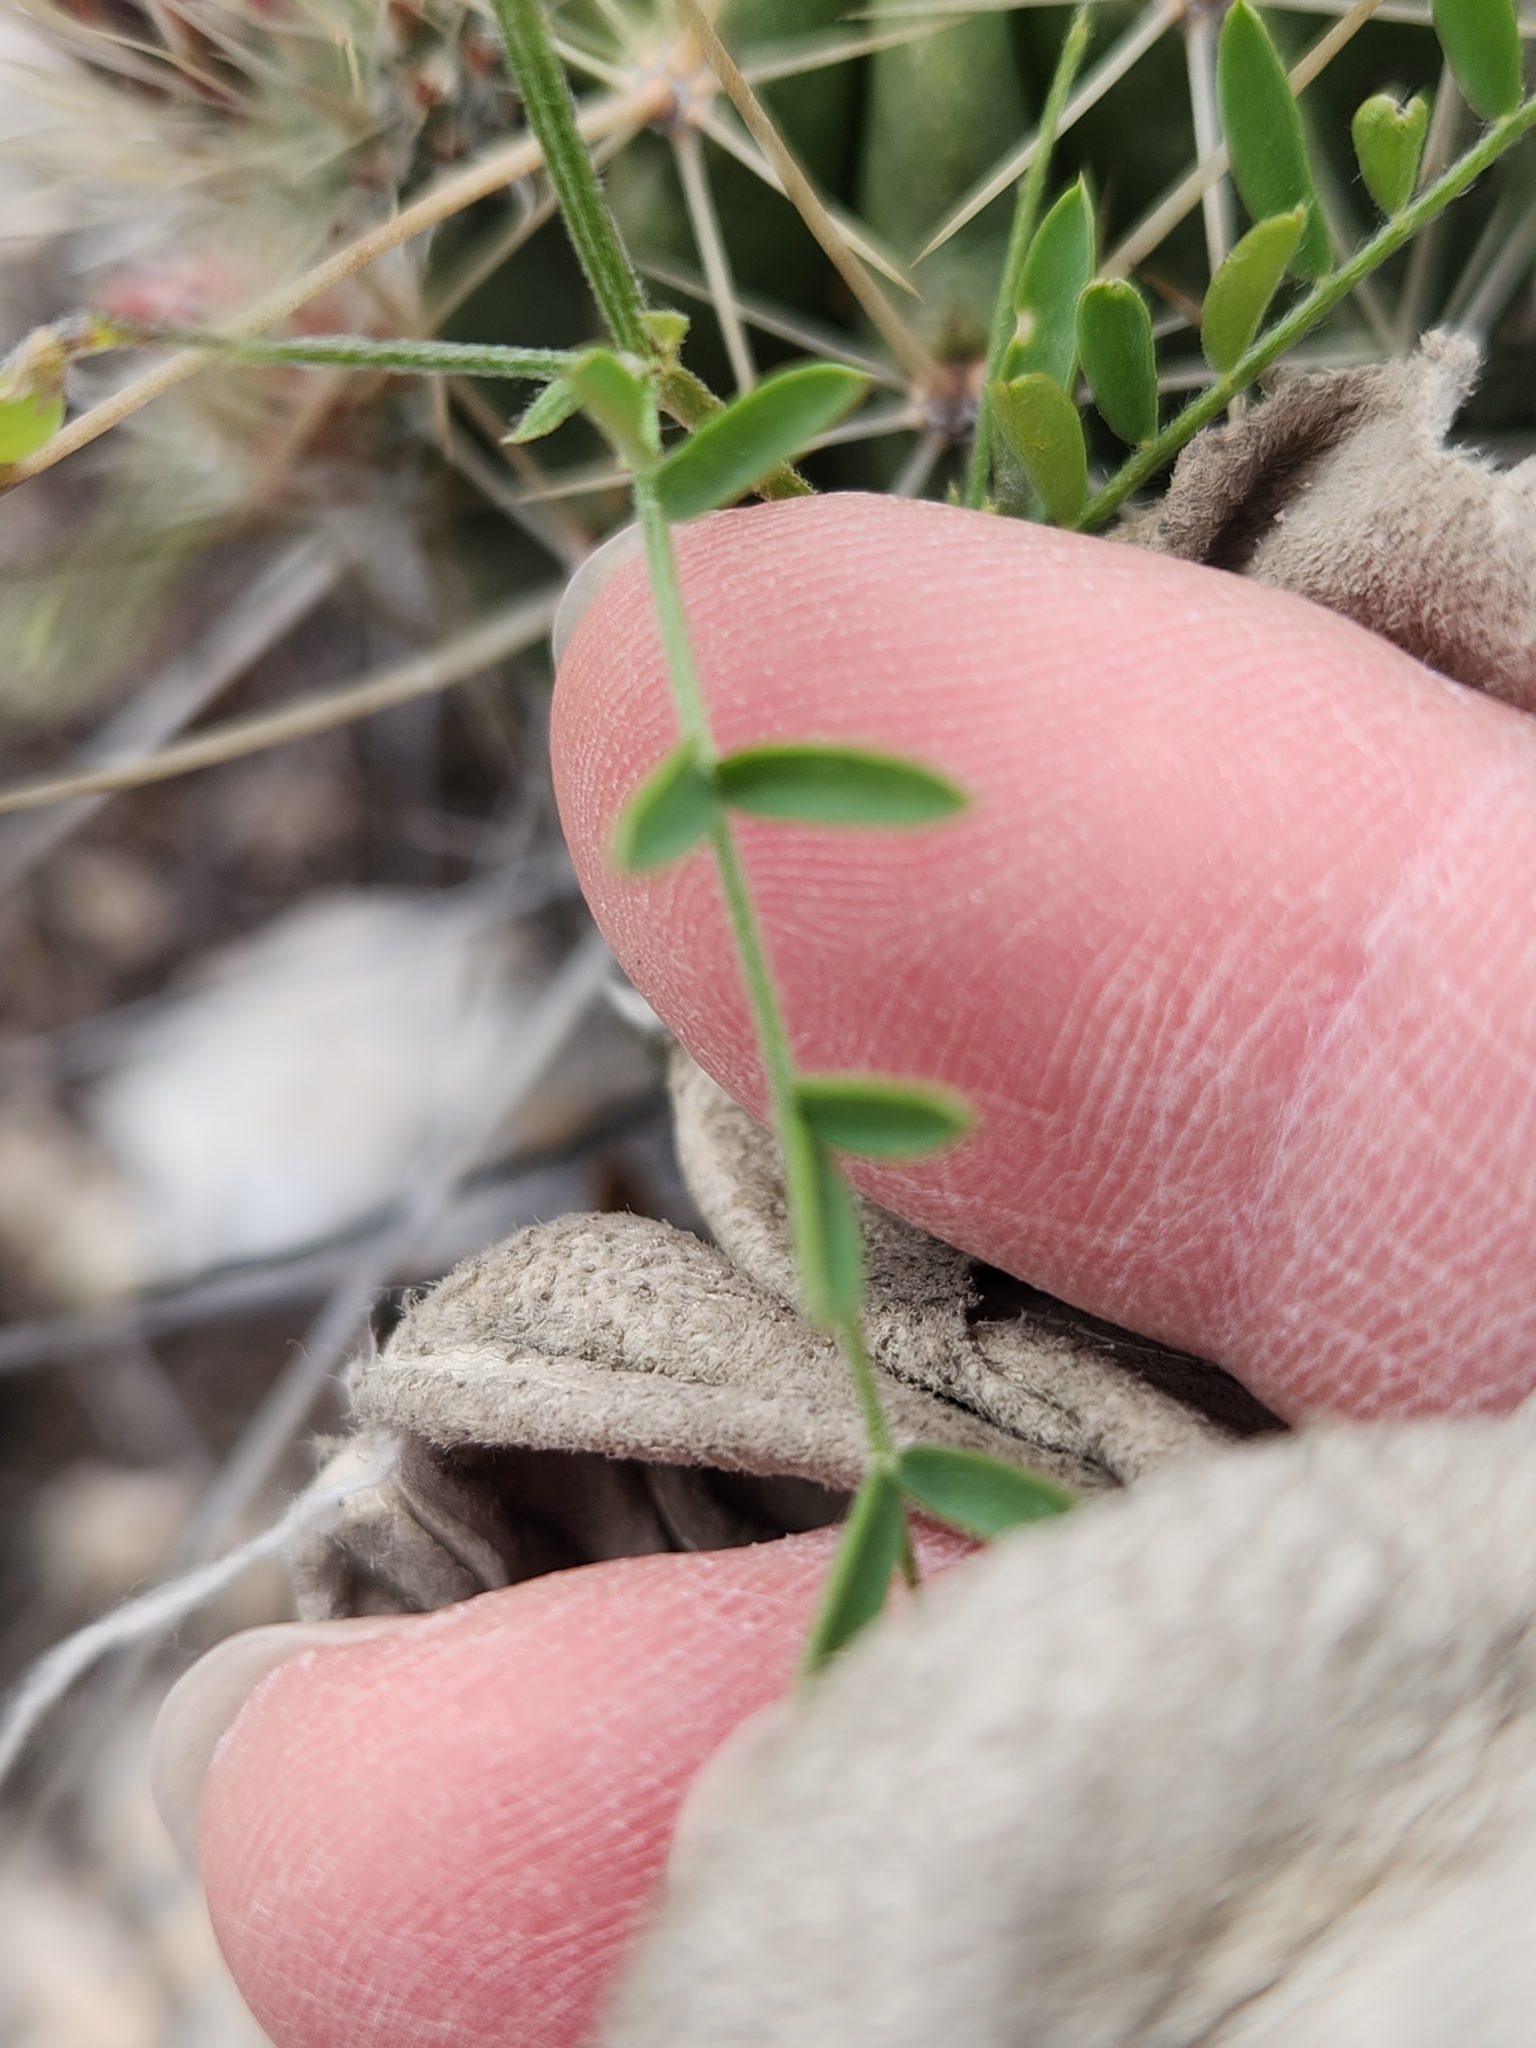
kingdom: Plantae
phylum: Tracheophyta
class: Magnoliopsida
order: Fabales
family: Fabaceae
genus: Astragalus
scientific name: Astragalus nuttallianus
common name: Smallflowered milkvetch
